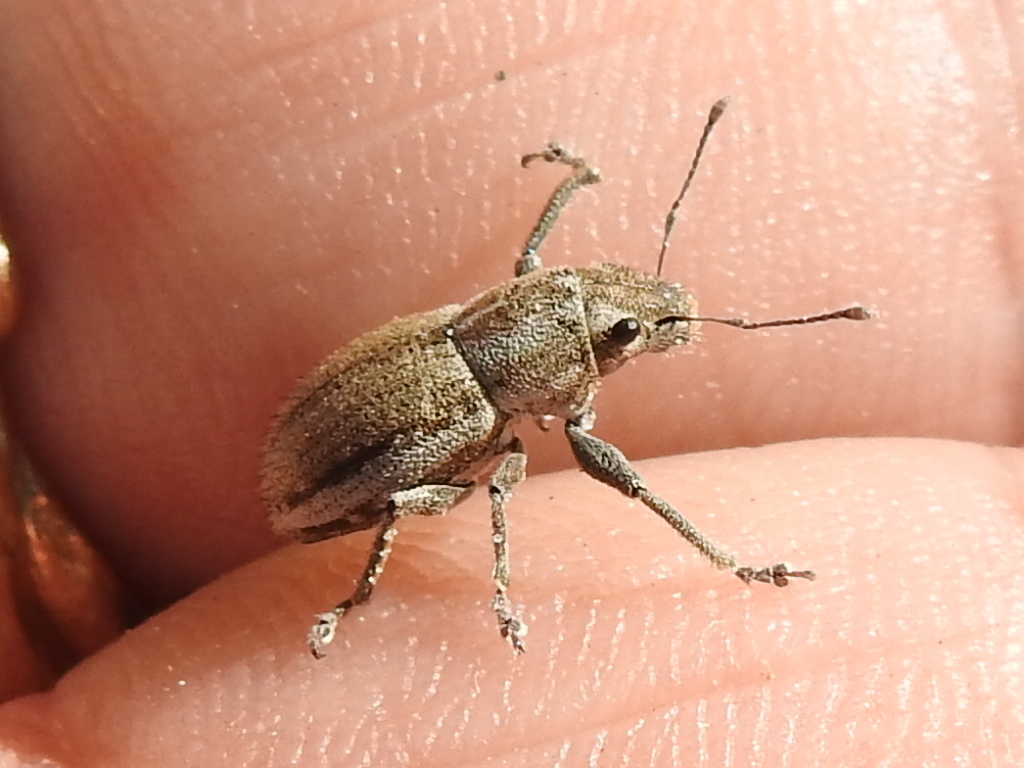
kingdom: Animalia
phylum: Arthropoda
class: Insecta
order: Coleoptera
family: Curculionidae
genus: Naupactus
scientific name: Naupactus peregrinus
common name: Whitefringed beetle
